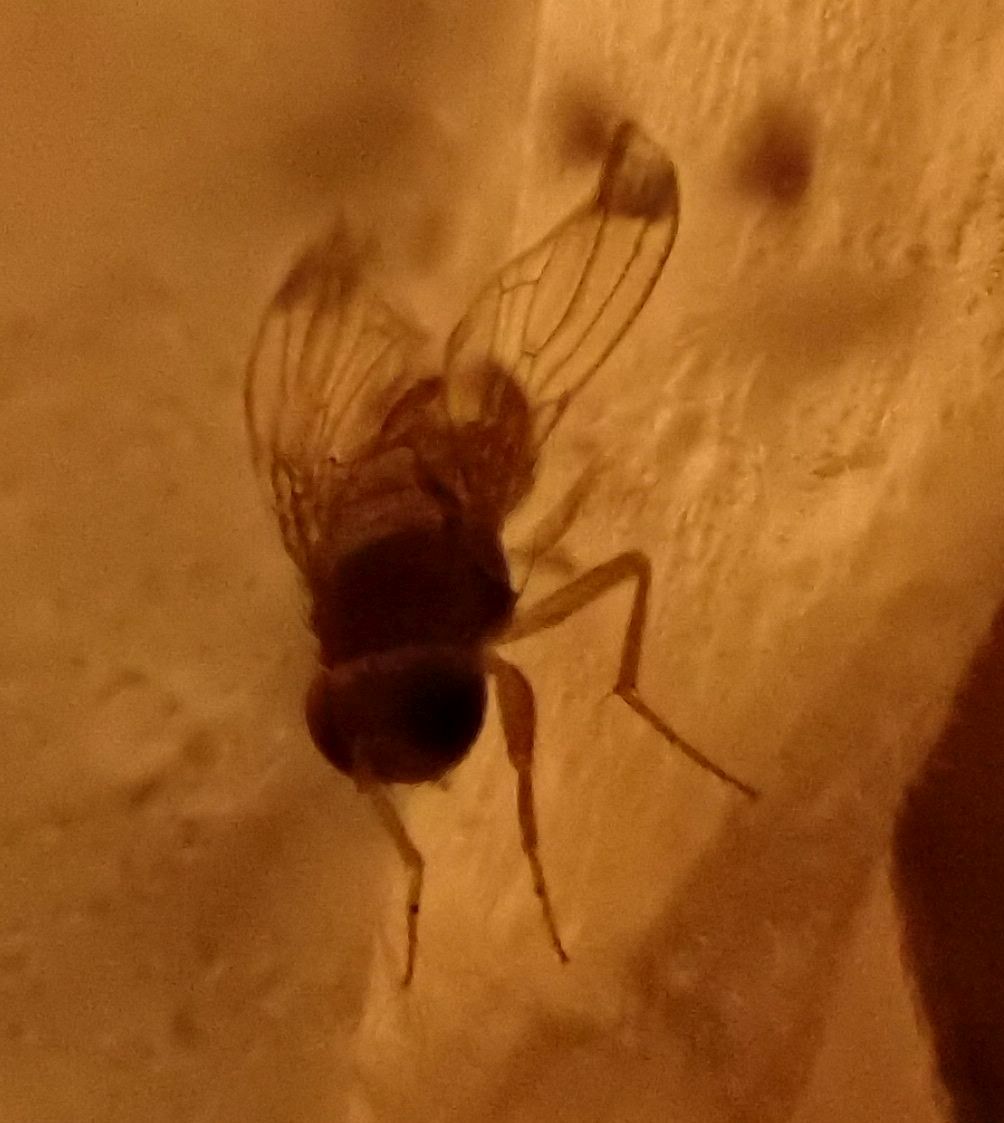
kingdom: Animalia
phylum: Arthropoda
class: Insecta
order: Diptera
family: Drosophilidae
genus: Drosophila
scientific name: Drosophila suzukii
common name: Spotted-wing drosophila
